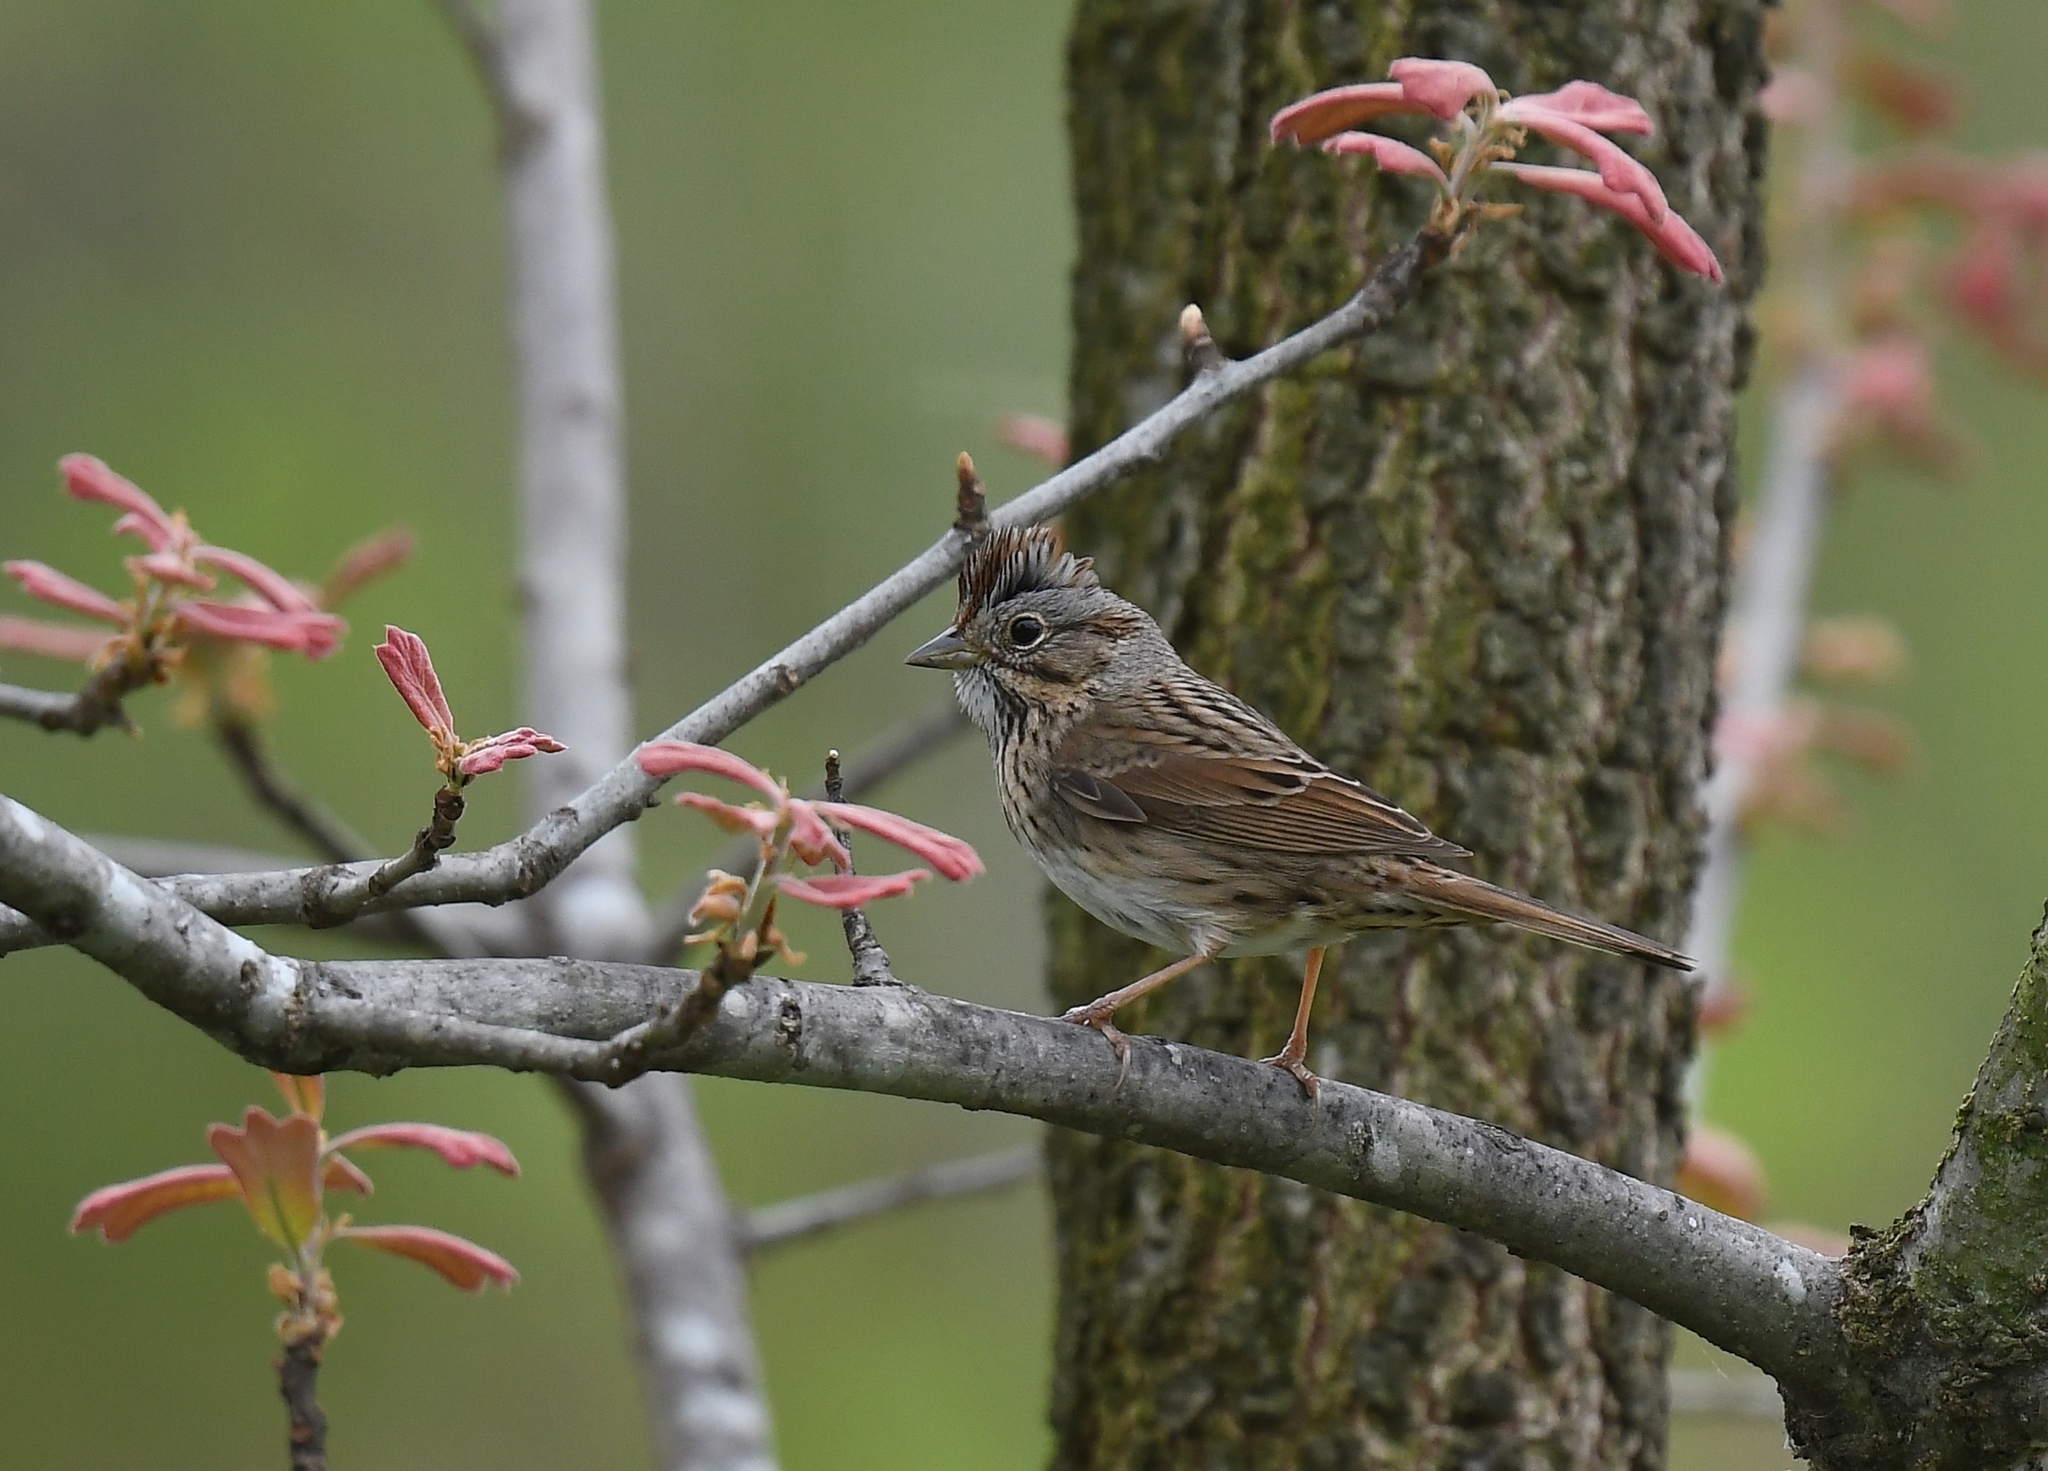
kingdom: Animalia
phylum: Chordata
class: Aves
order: Passeriformes
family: Passerellidae
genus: Melospiza
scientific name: Melospiza lincolnii
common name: Lincoln's sparrow
